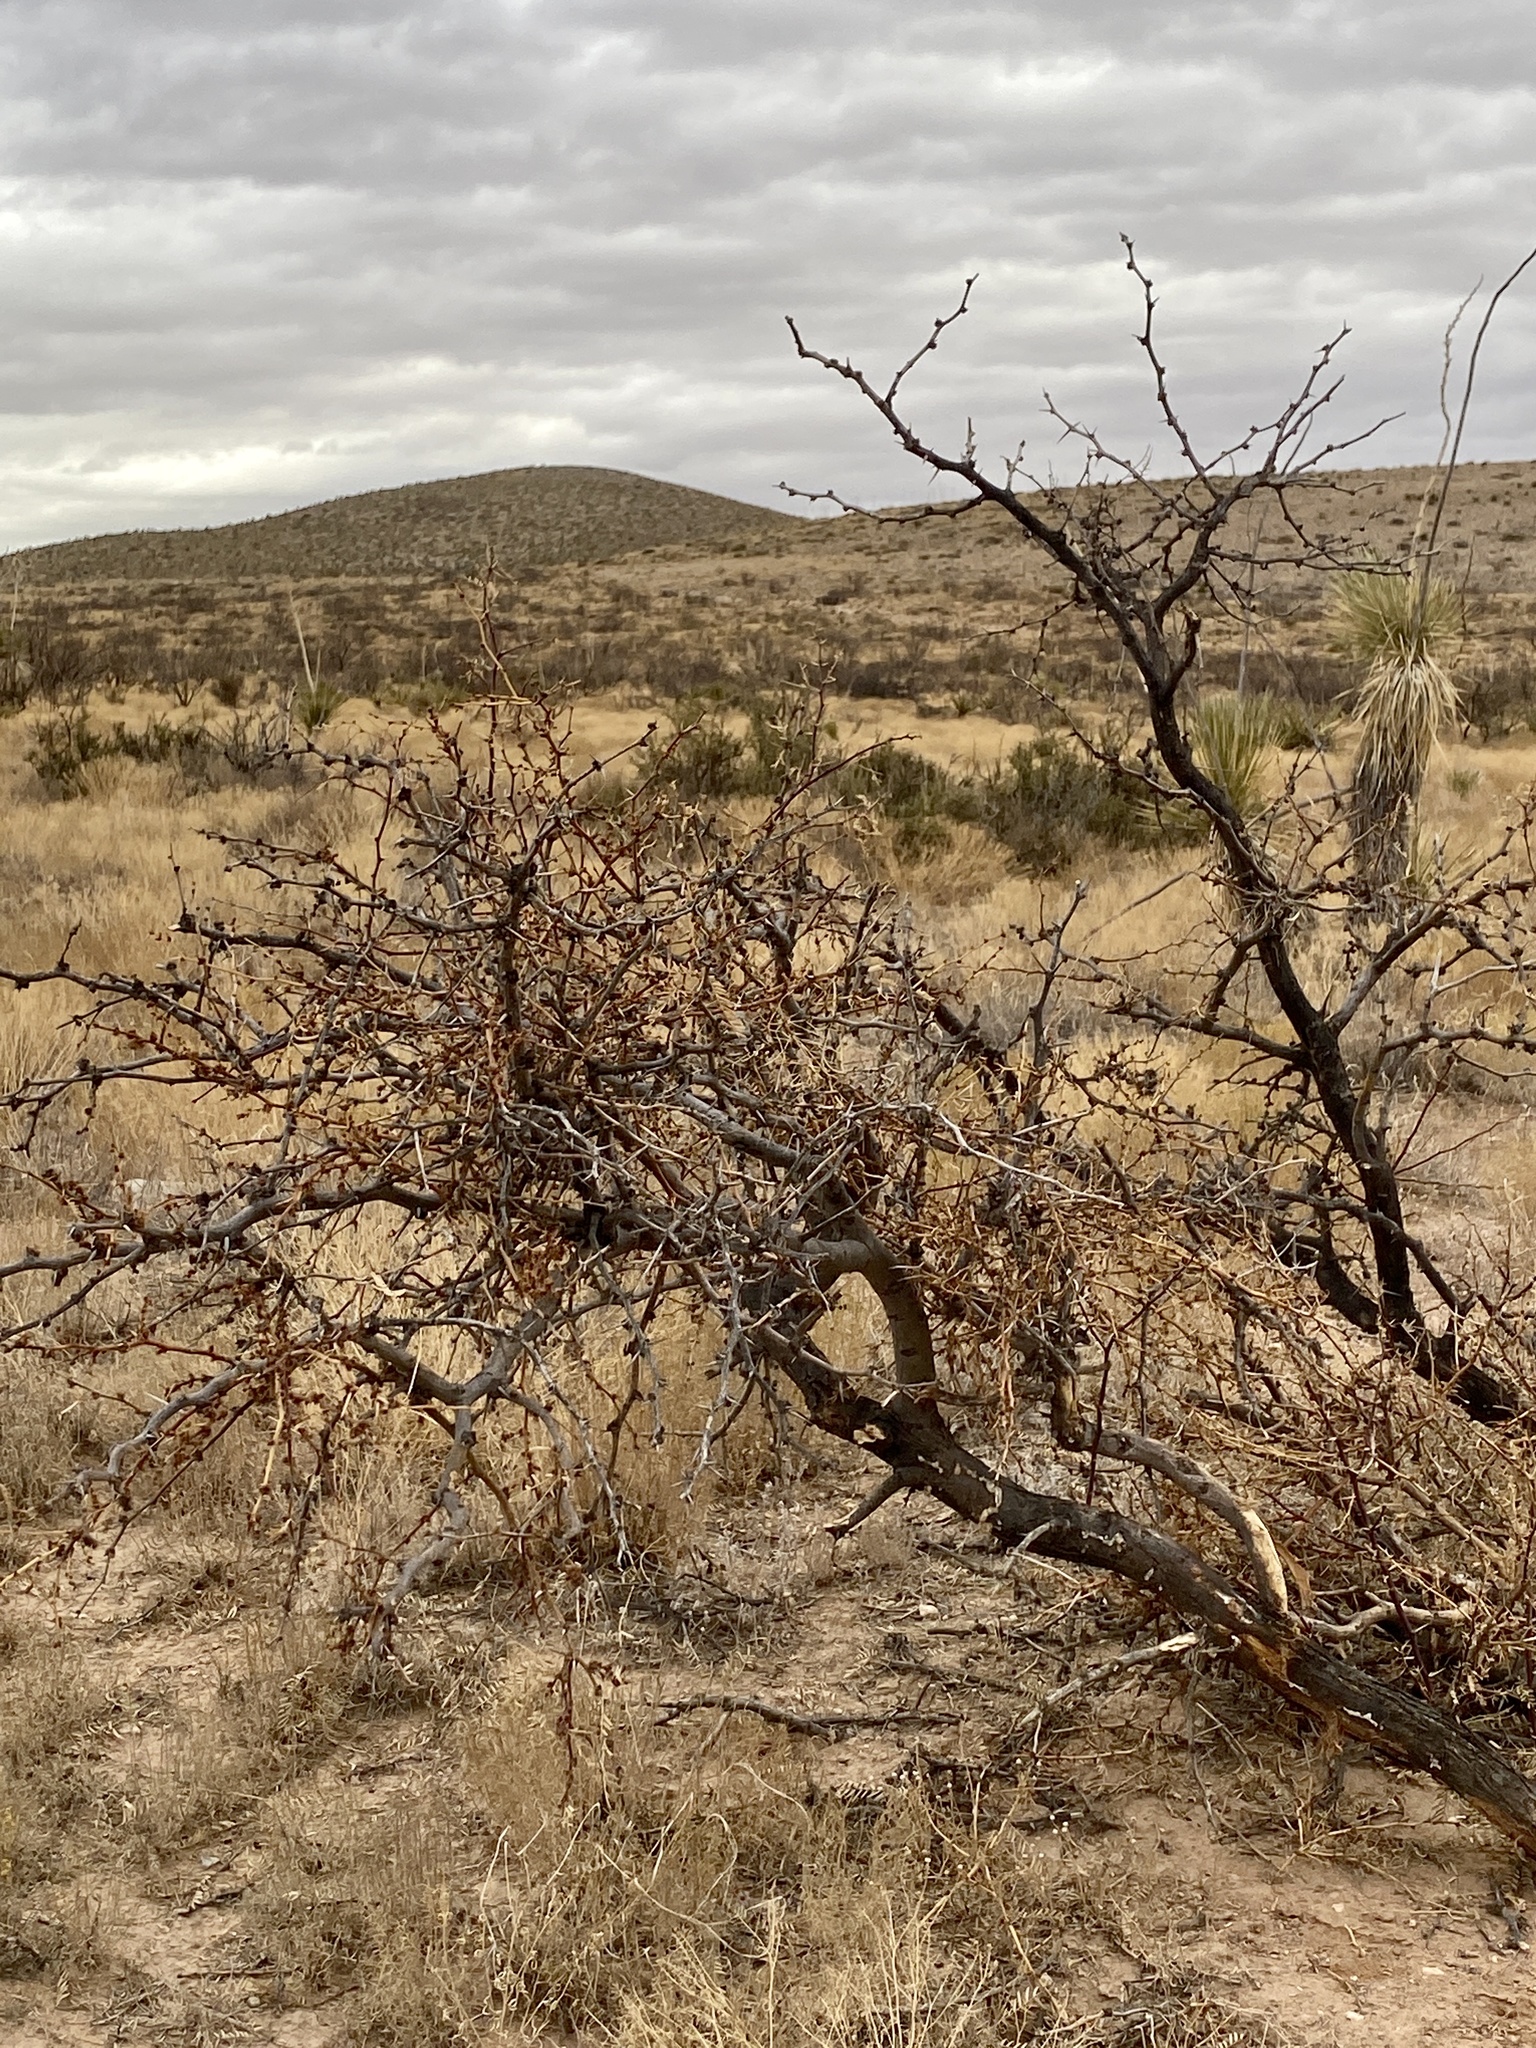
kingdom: Plantae
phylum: Tracheophyta
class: Magnoliopsida
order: Fabales
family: Fabaceae
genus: Prosopis
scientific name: Prosopis glandulosa
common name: Honey mesquite
